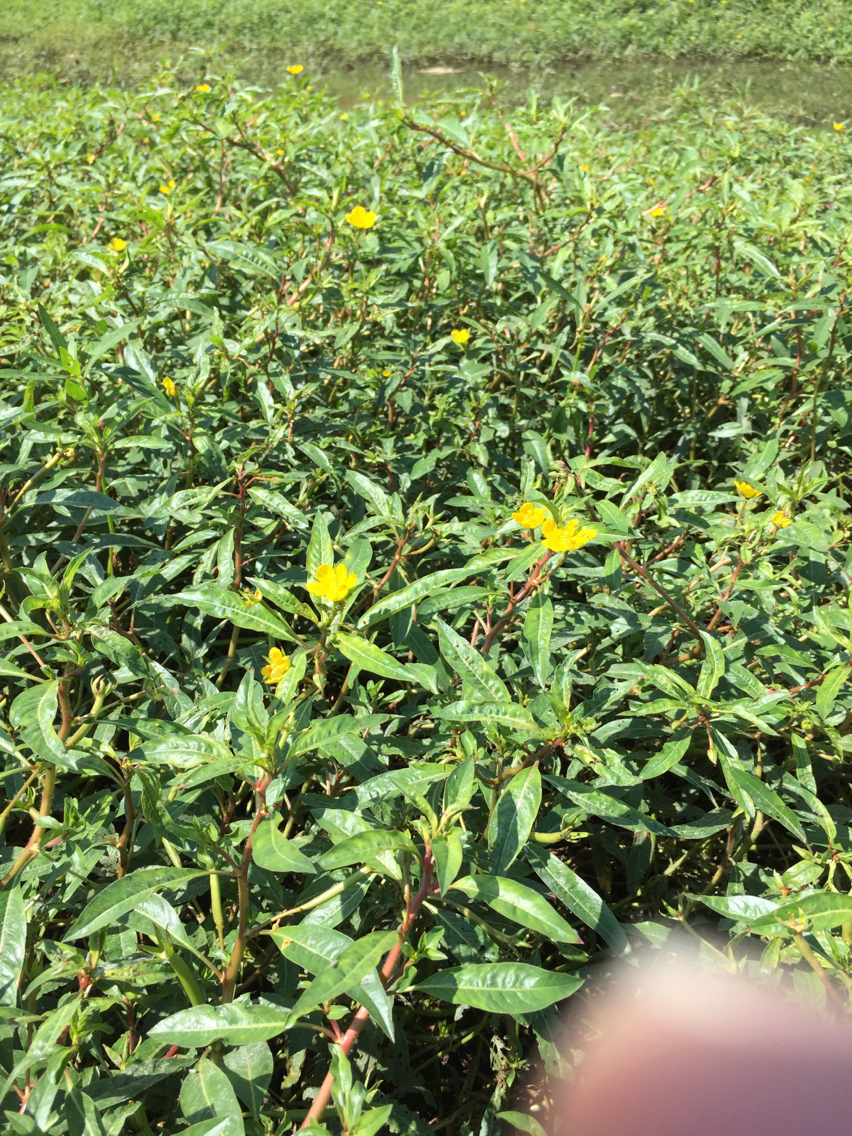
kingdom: Plantae
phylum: Tracheophyta
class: Magnoliopsida
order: Myrtales
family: Onagraceae
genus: Ludwigia
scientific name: Ludwigia peploides
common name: Floating primrose-willow
